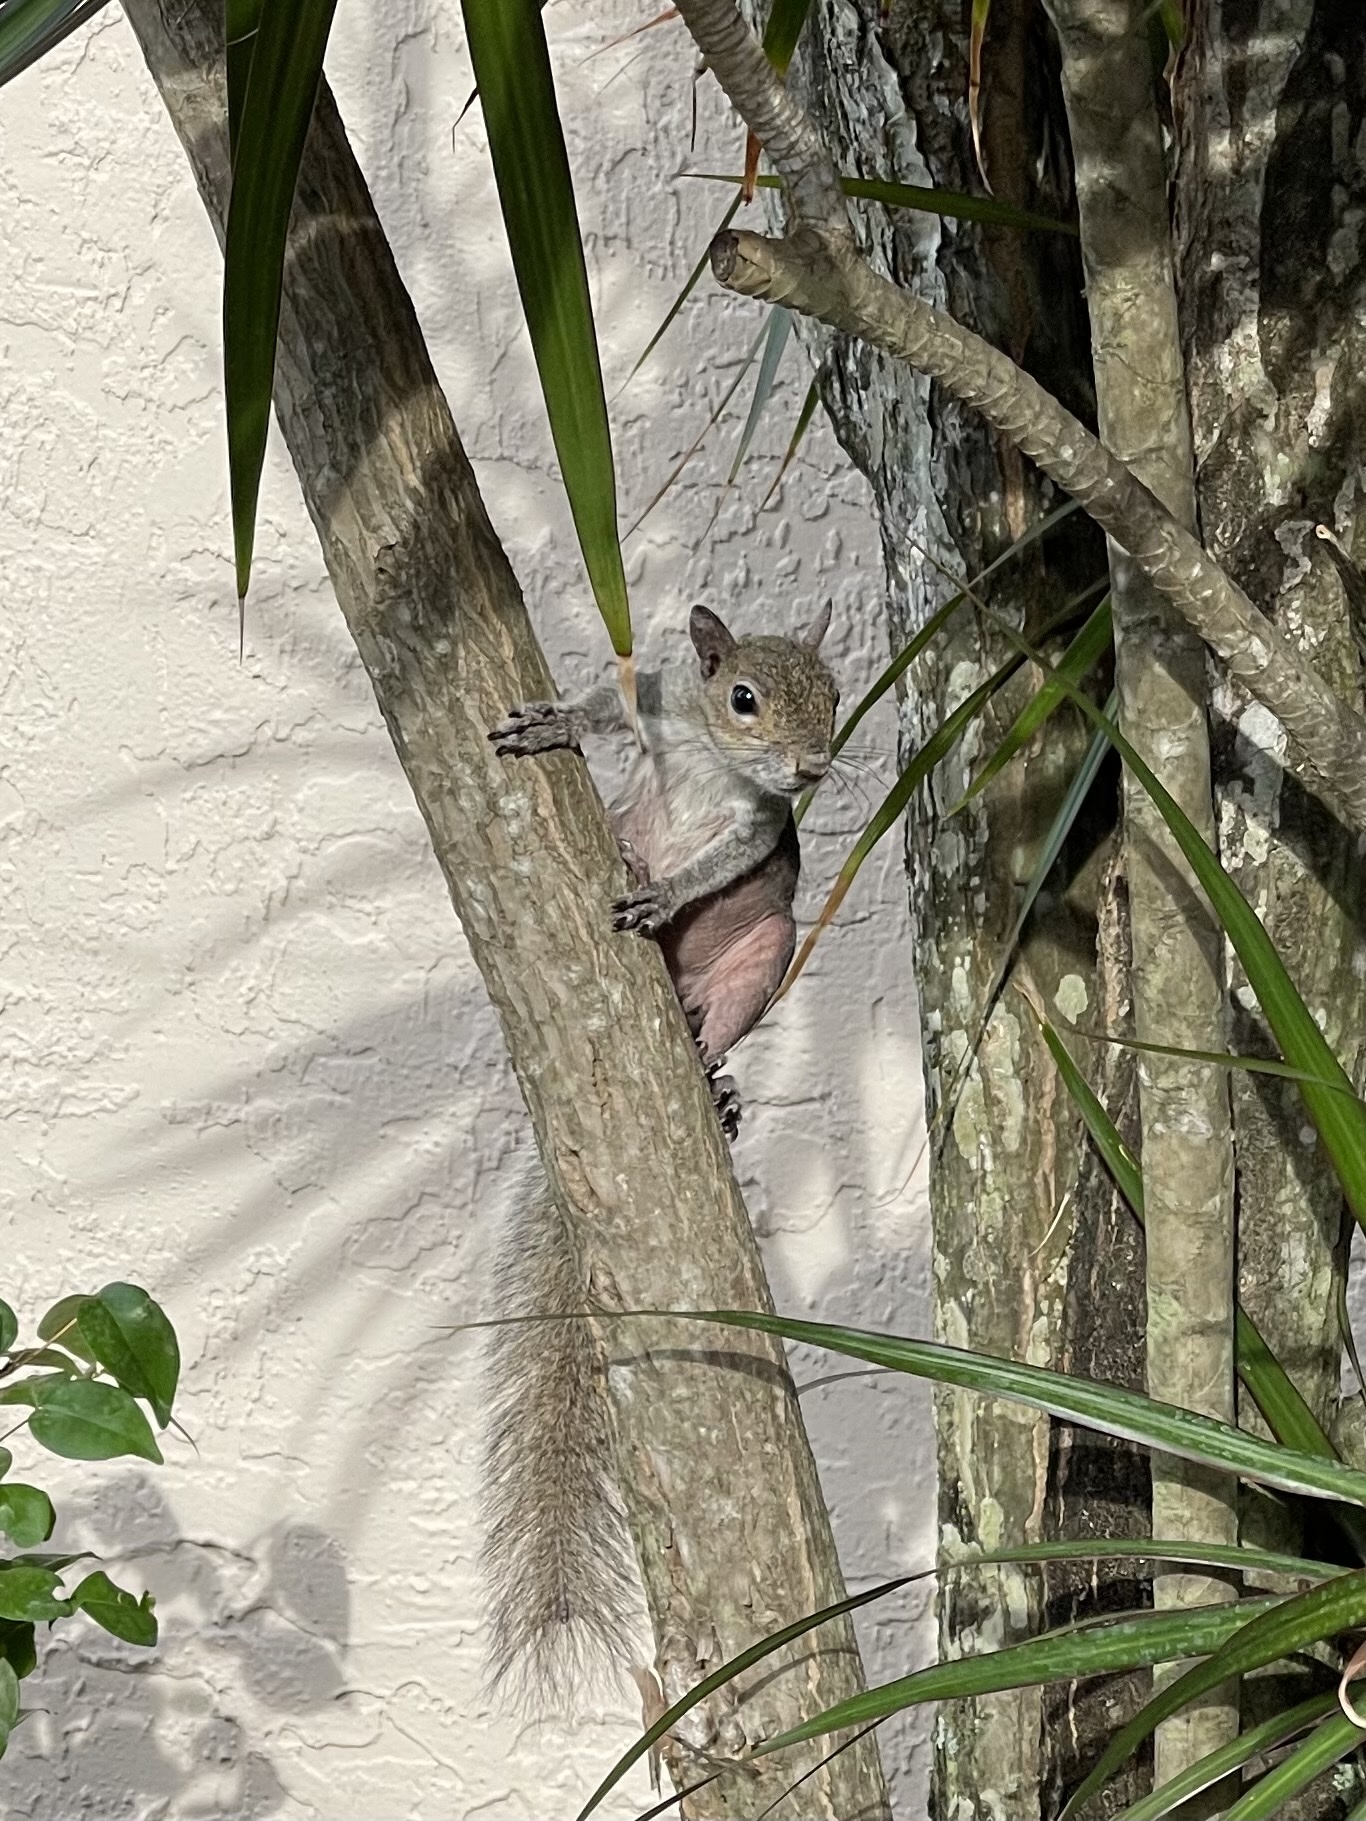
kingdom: Animalia
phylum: Chordata
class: Mammalia
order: Rodentia
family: Sciuridae
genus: Sciurus
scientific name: Sciurus carolinensis
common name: Eastern gray squirrel
